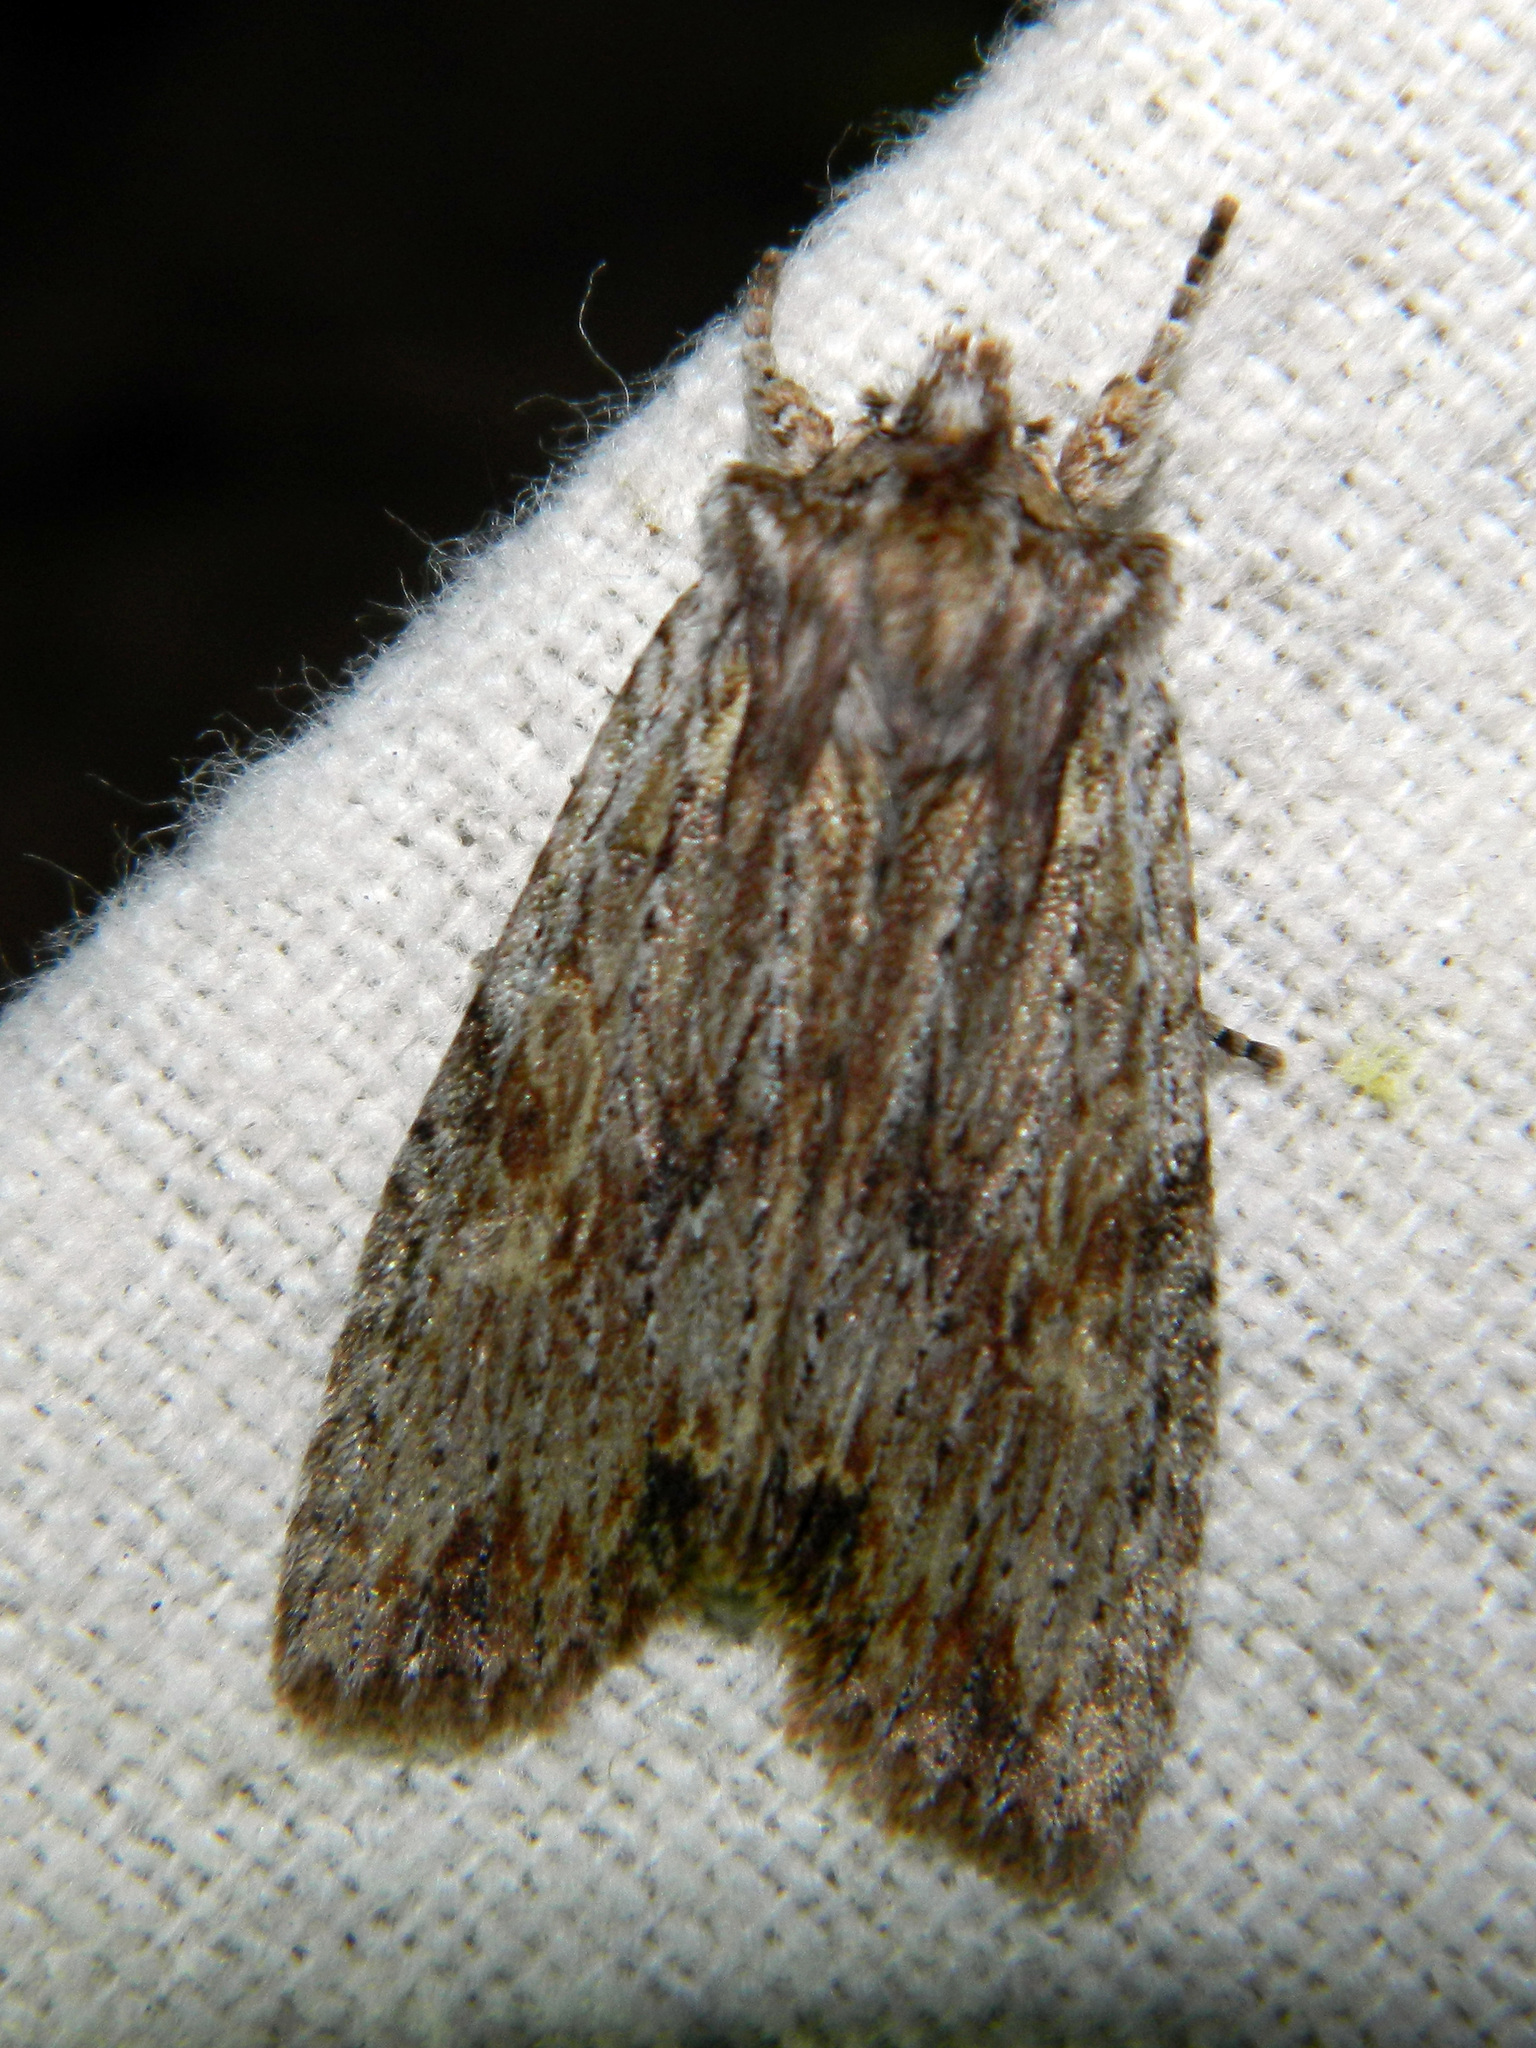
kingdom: Animalia
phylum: Arthropoda
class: Insecta
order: Lepidoptera
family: Noctuidae
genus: Lithophane
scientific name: Lithophane petulca
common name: Wanton pinion
